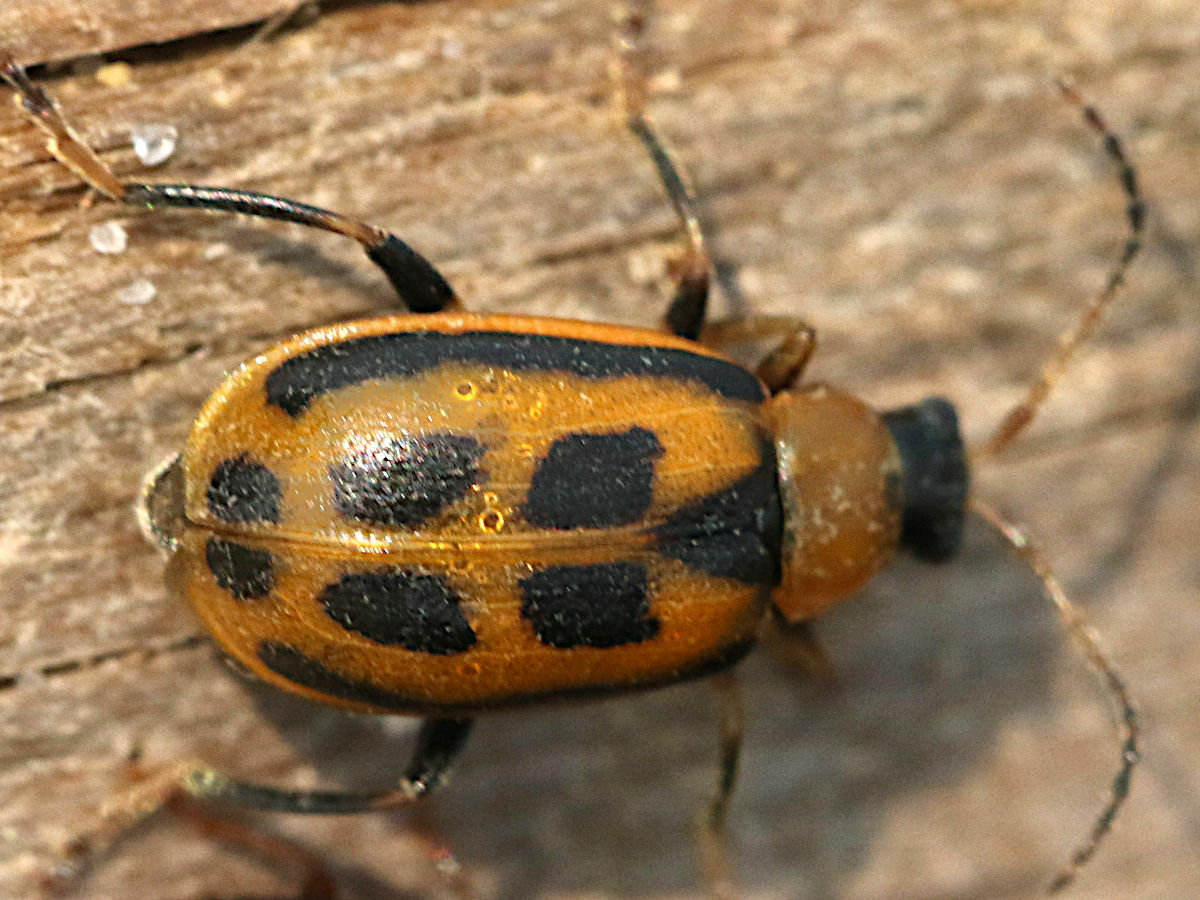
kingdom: Animalia
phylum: Arthropoda
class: Insecta
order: Coleoptera
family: Chrysomelidae
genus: Cerotoma
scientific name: Cerotoma trifurcata
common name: Bean leaf beetle
